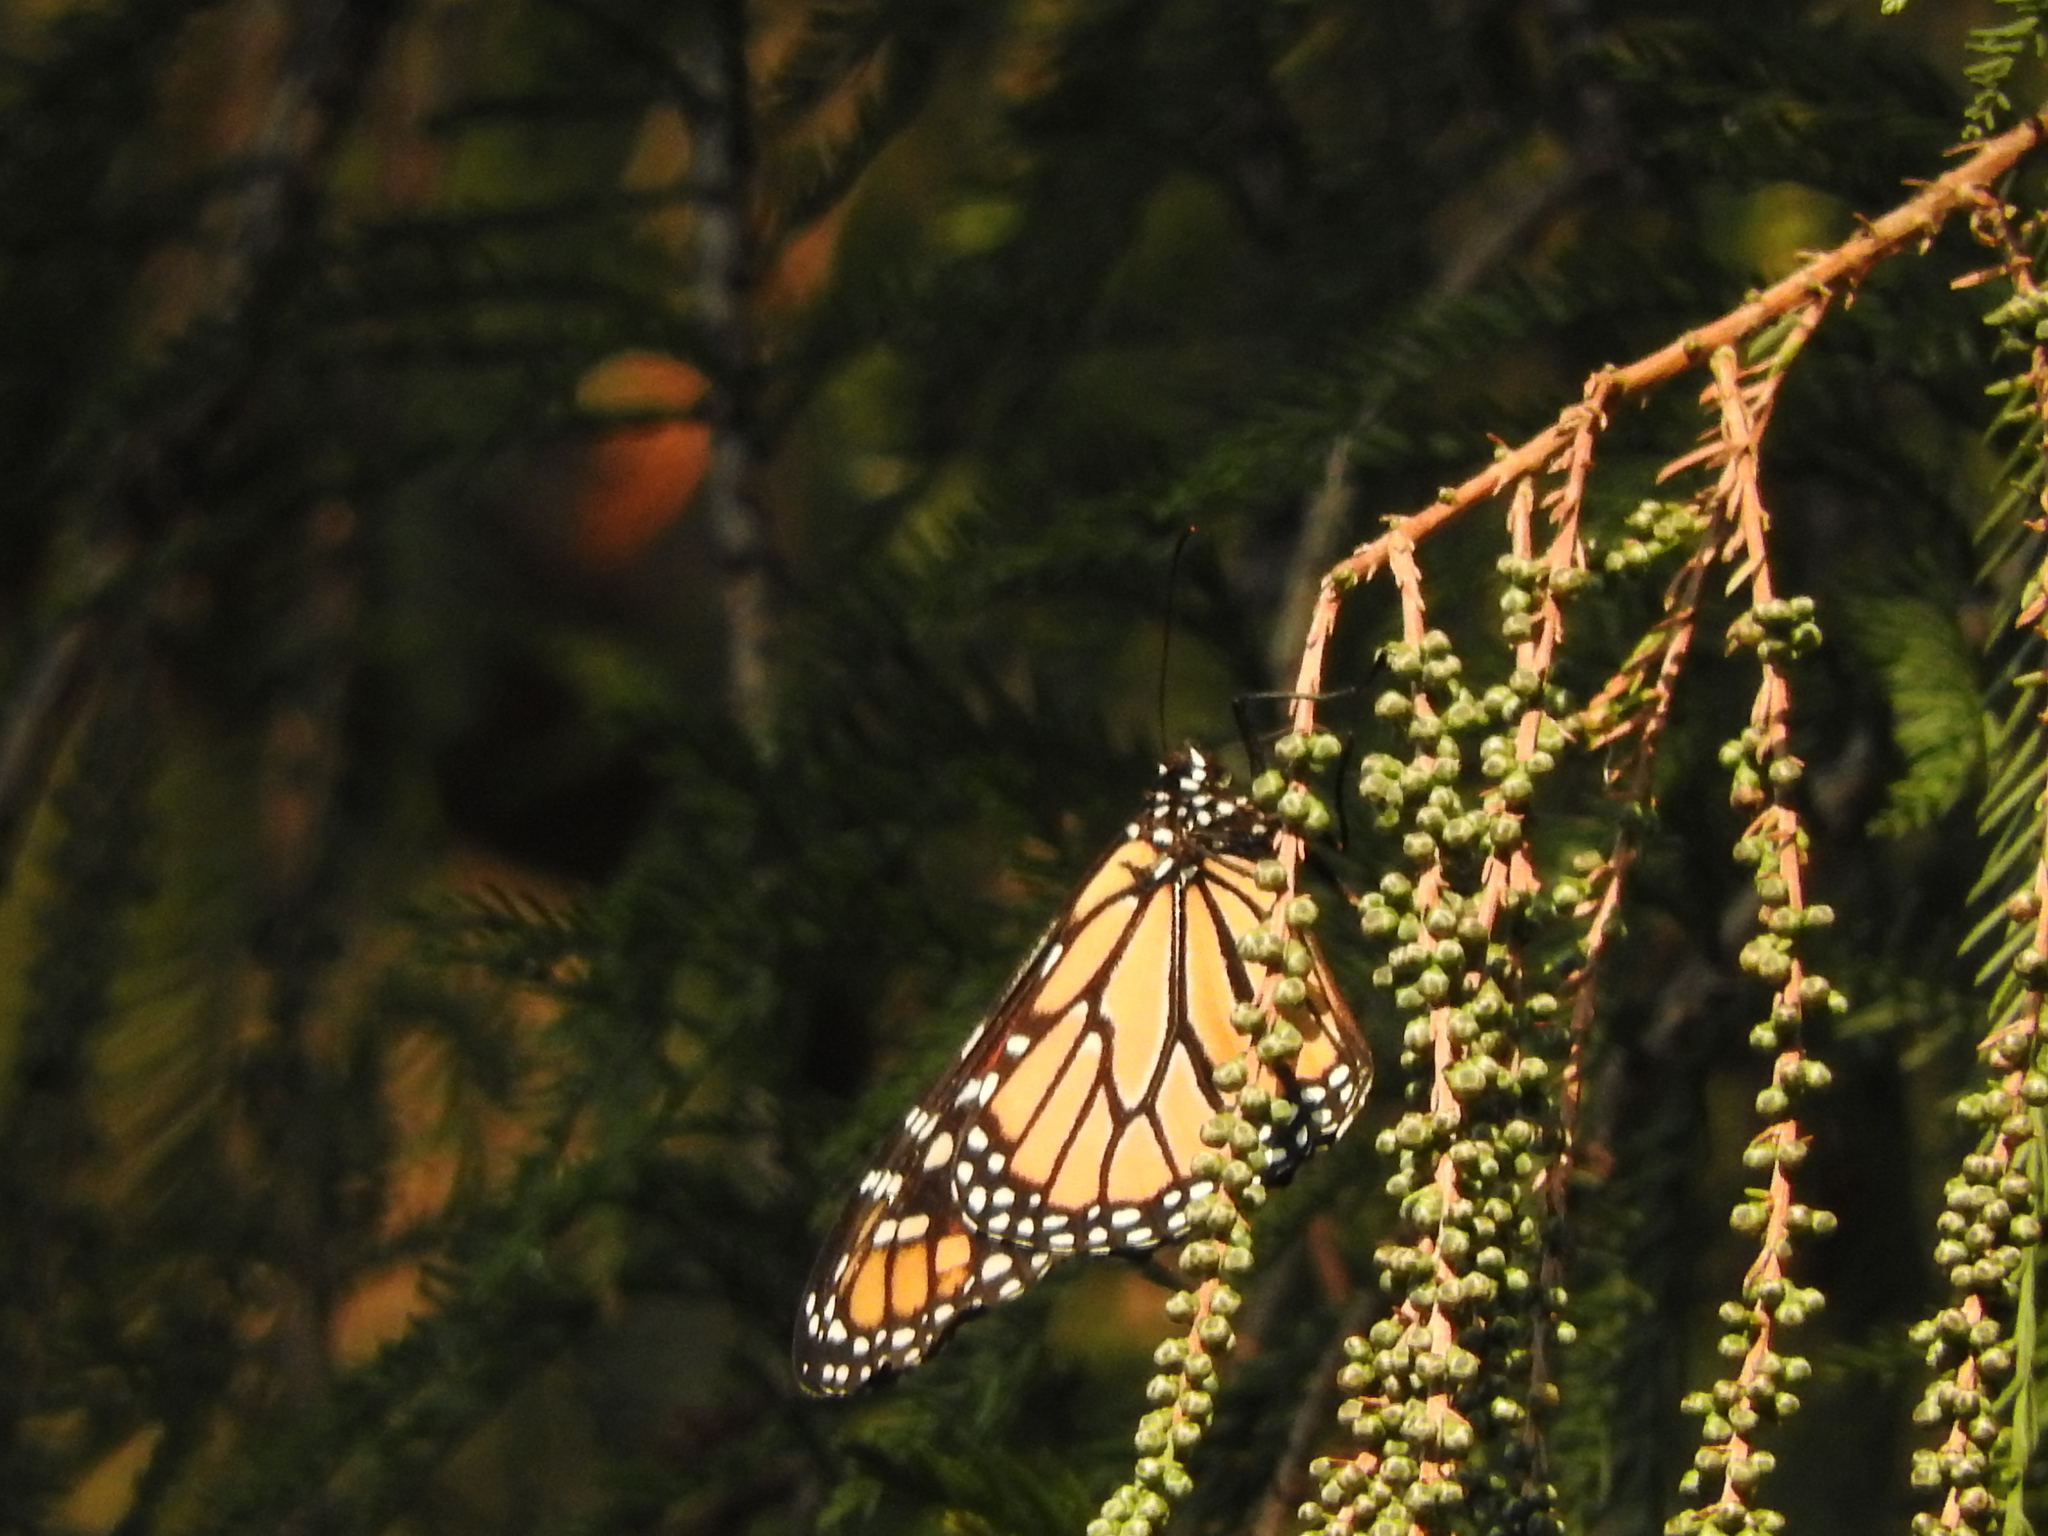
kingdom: Animalia
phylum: Arthropoda
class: Insecta
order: Lepidoptera
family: Nymphalidae
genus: Danaus
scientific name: Danaus plexippus
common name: Monarch
